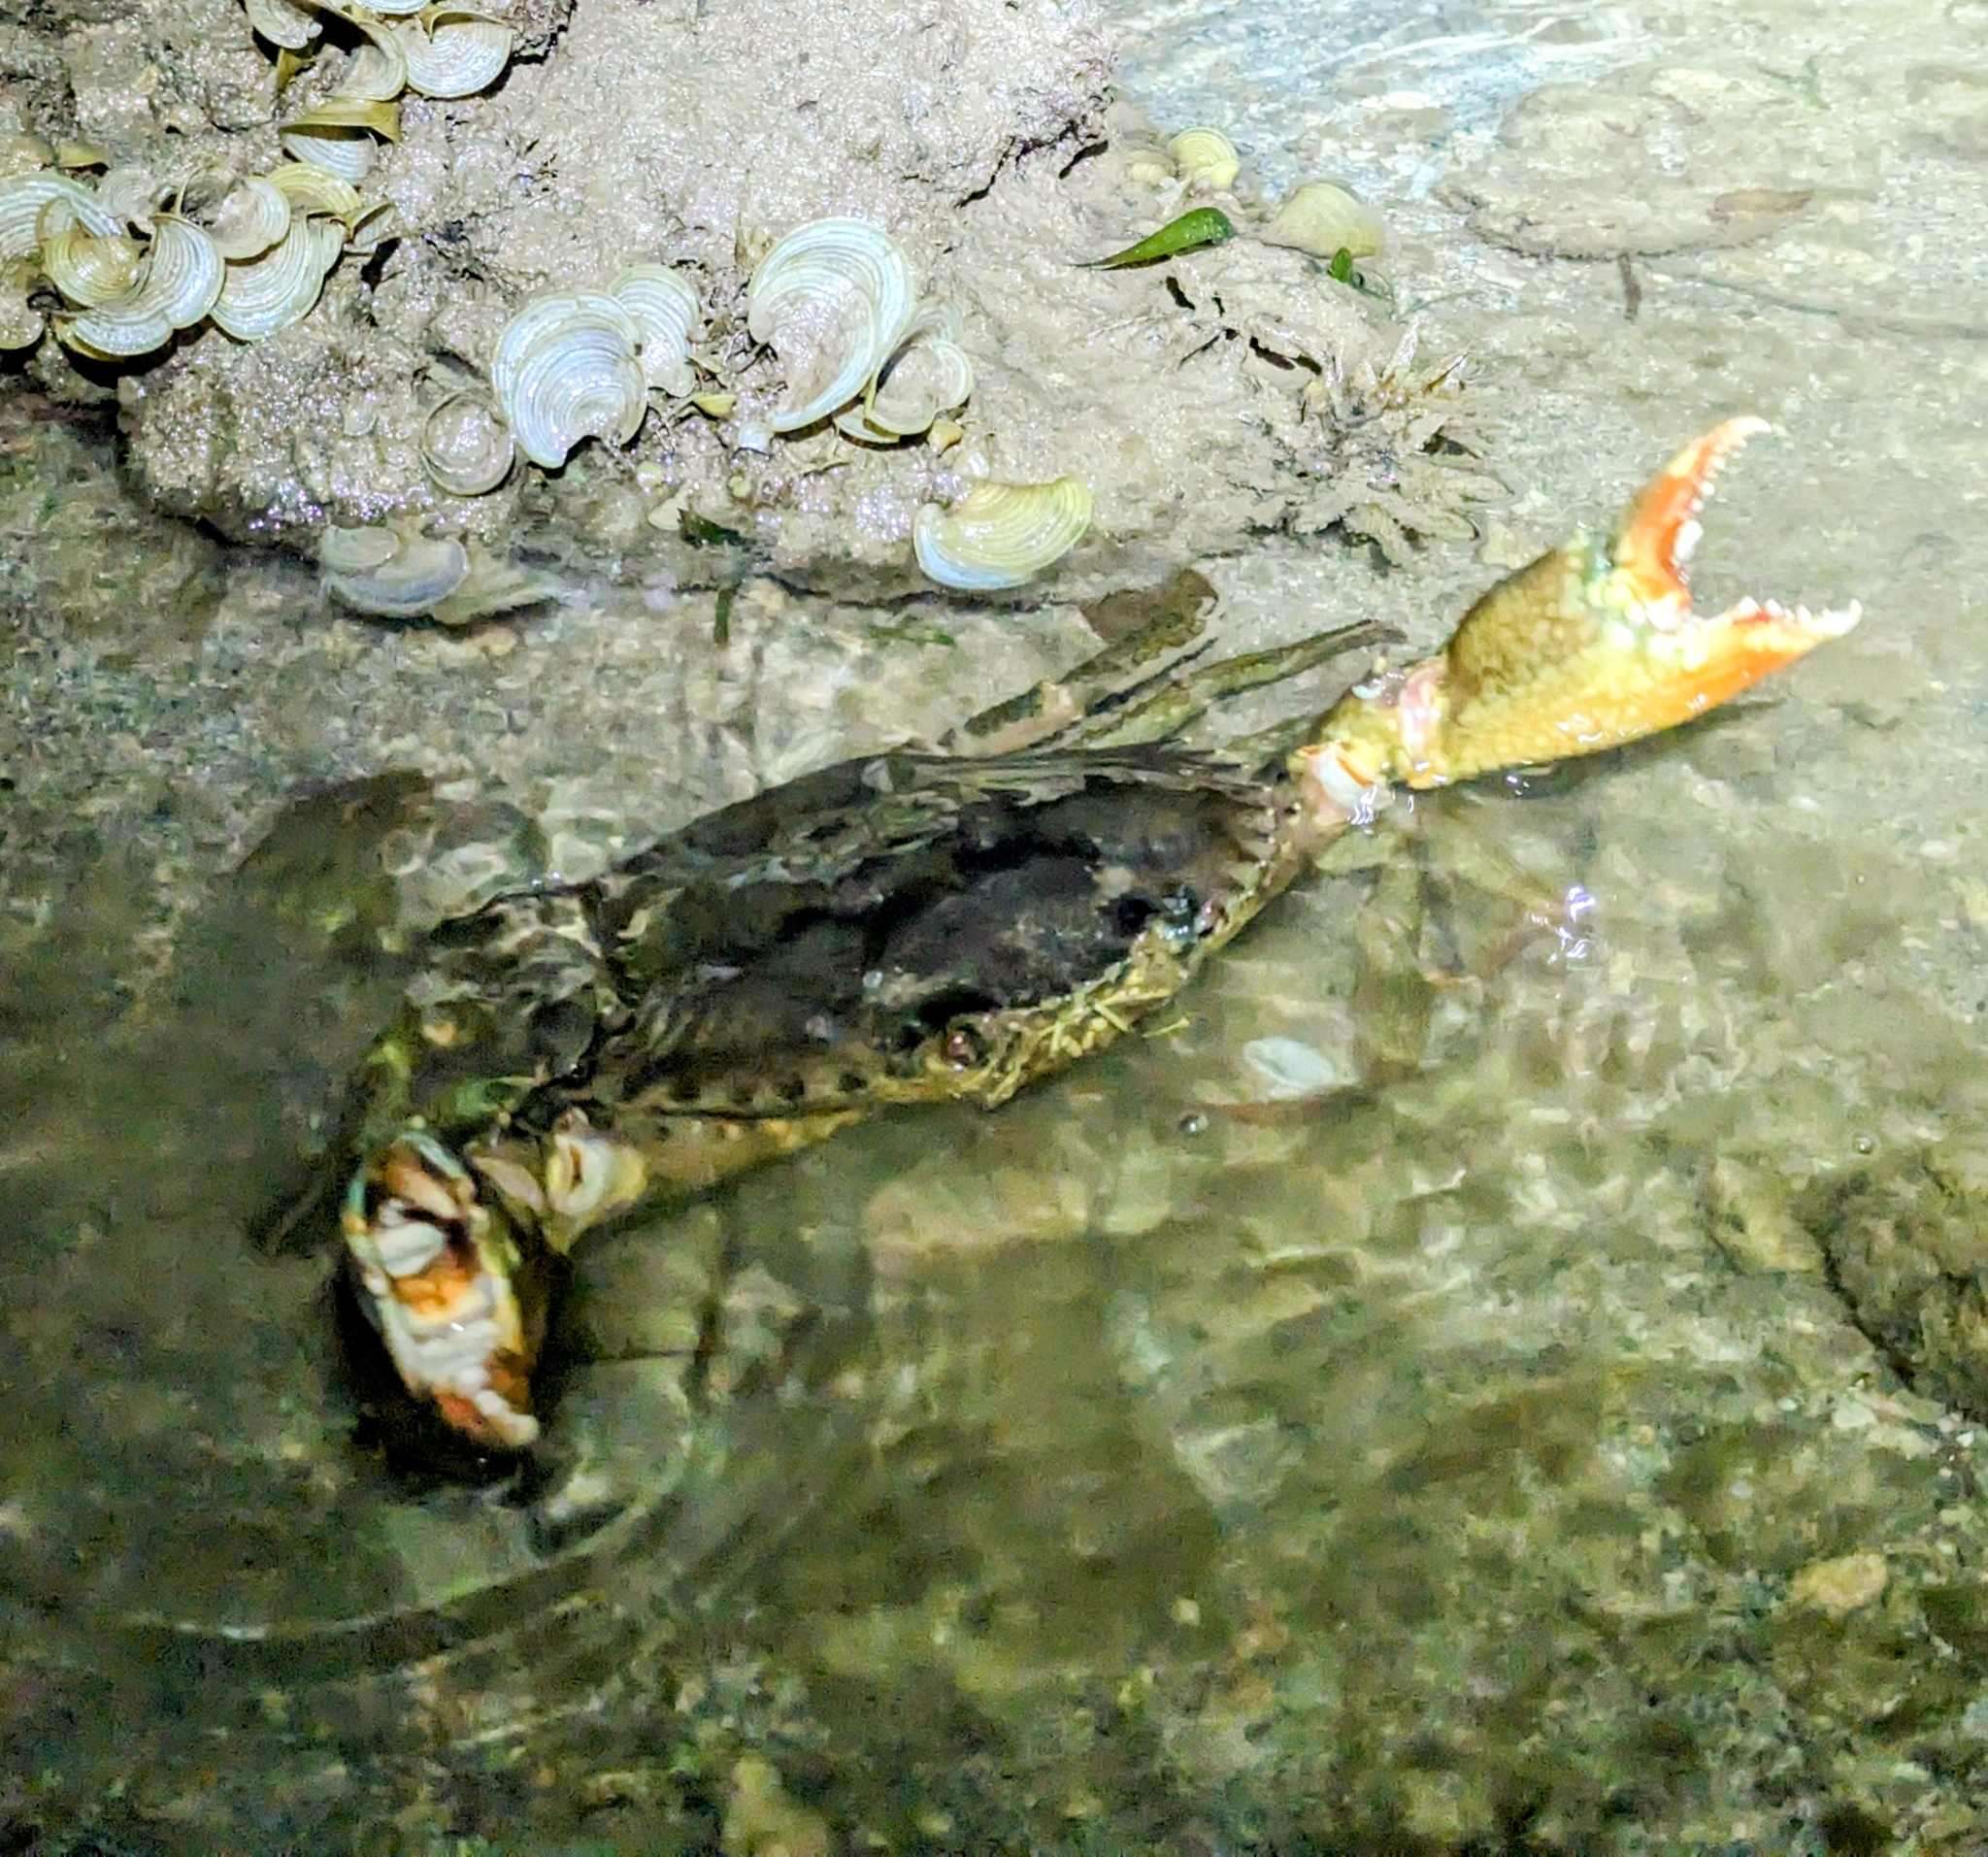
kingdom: Animalia
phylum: Arthropoda
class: Malacostraca
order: Decapoda
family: Portunidae
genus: Scylla
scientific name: Scylla serrata
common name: Giant mud crab
